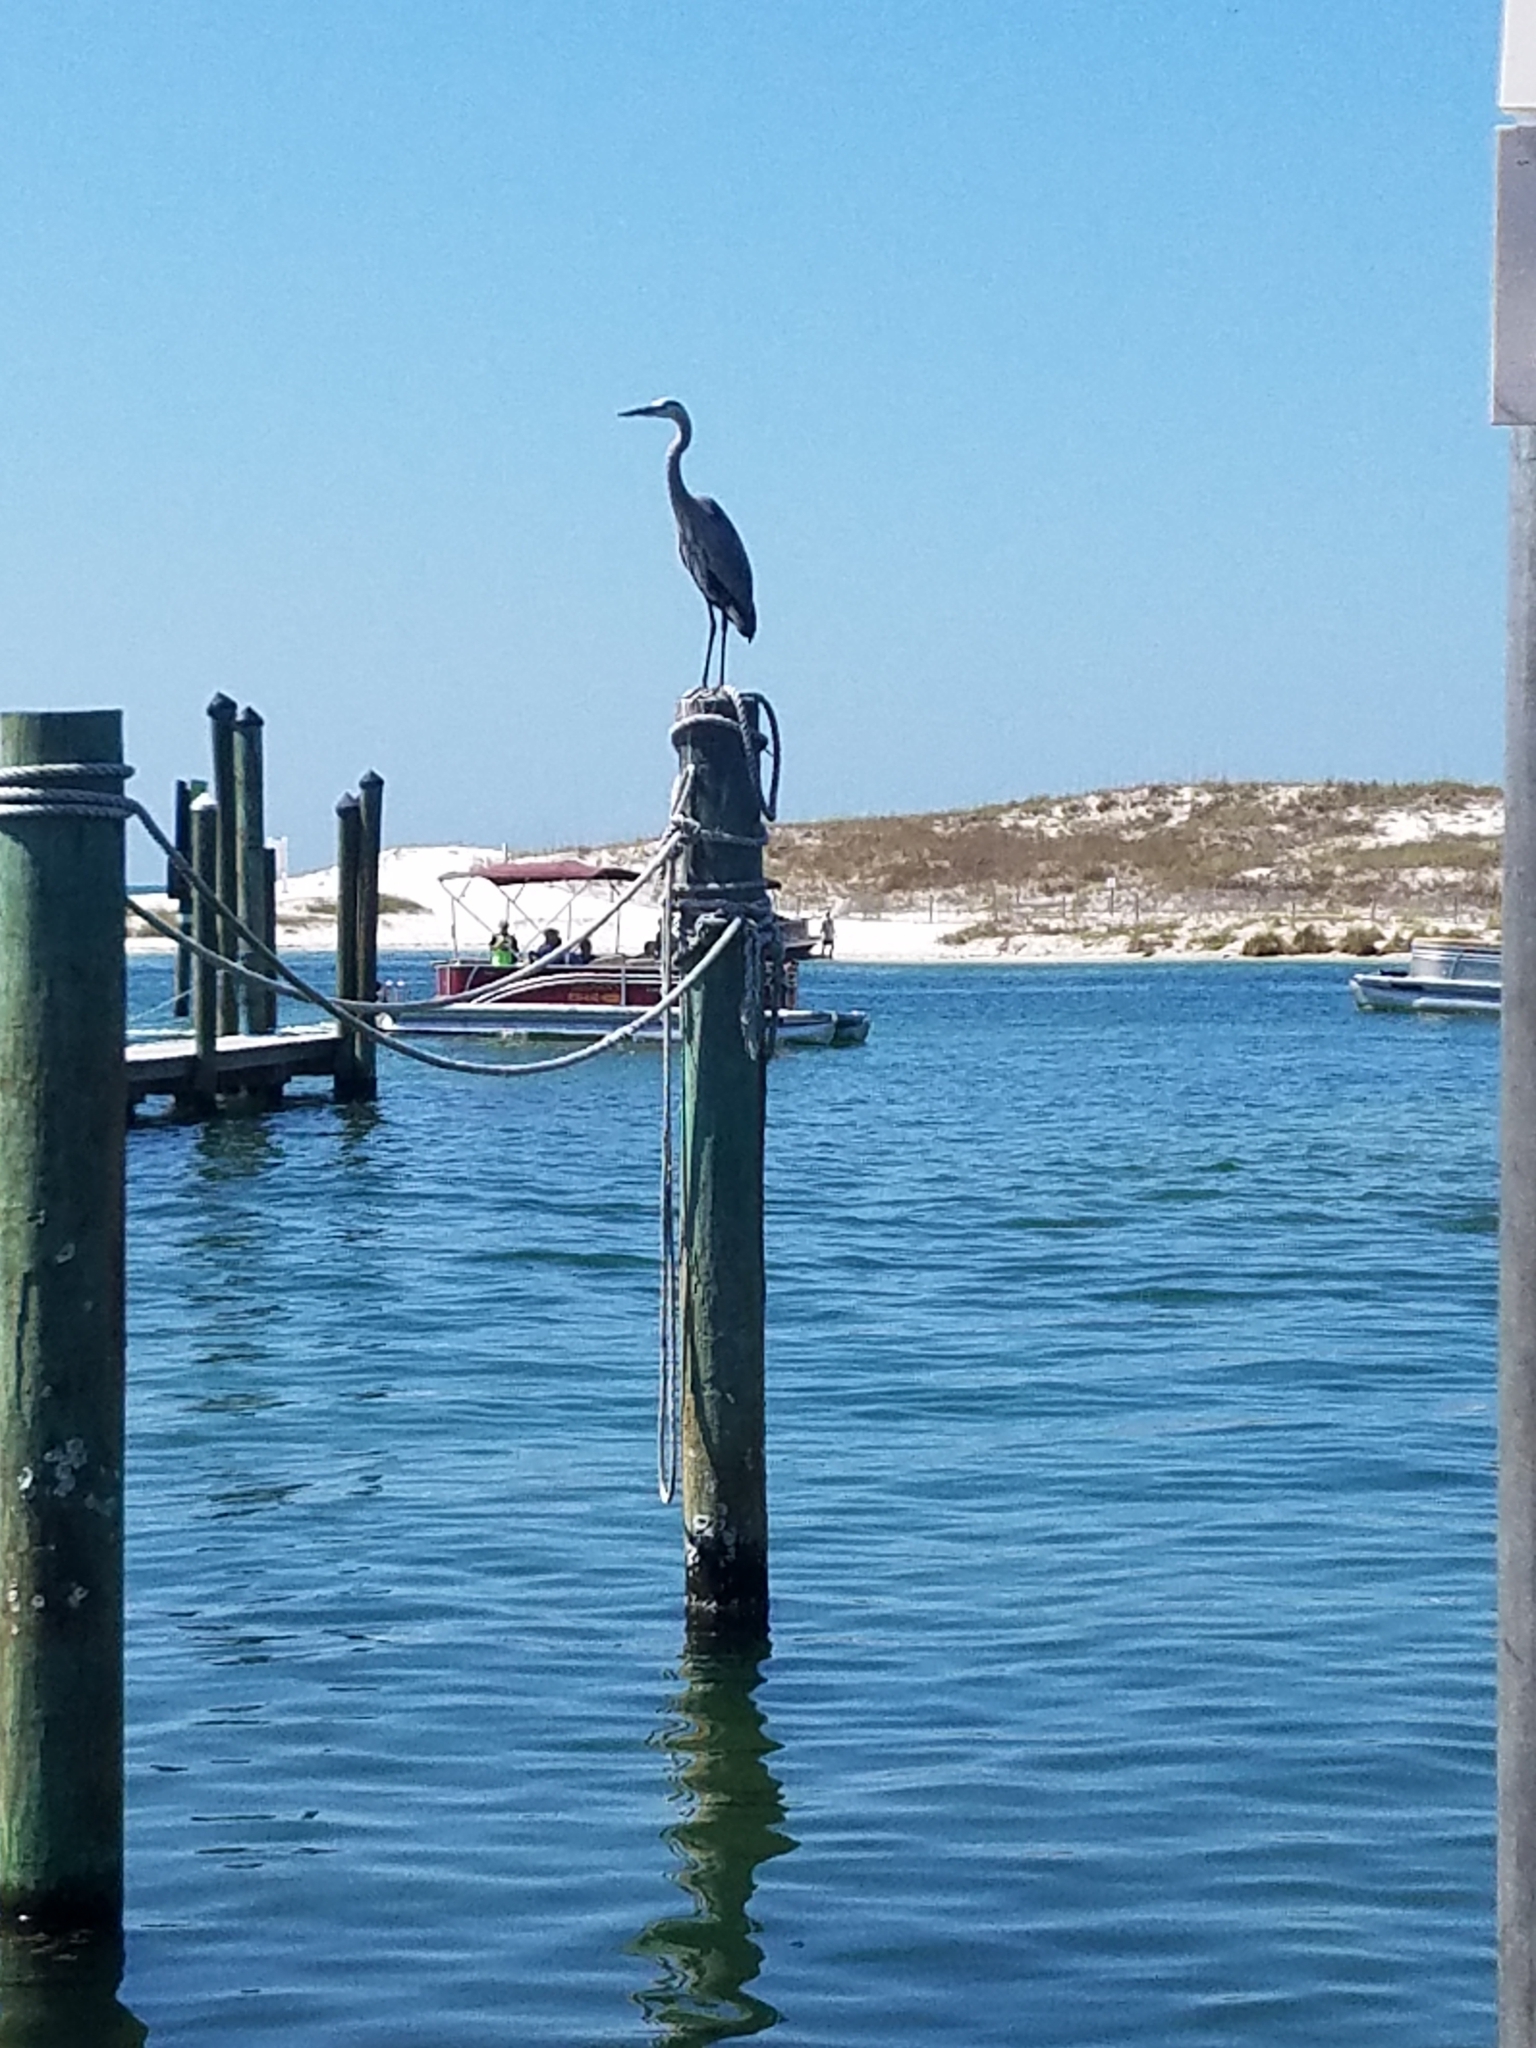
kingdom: Animalia
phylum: Chordata
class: Aves
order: Pelecaniformes
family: Ardeidae
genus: Ardea
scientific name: Ardea herodias
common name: Great blue heron
